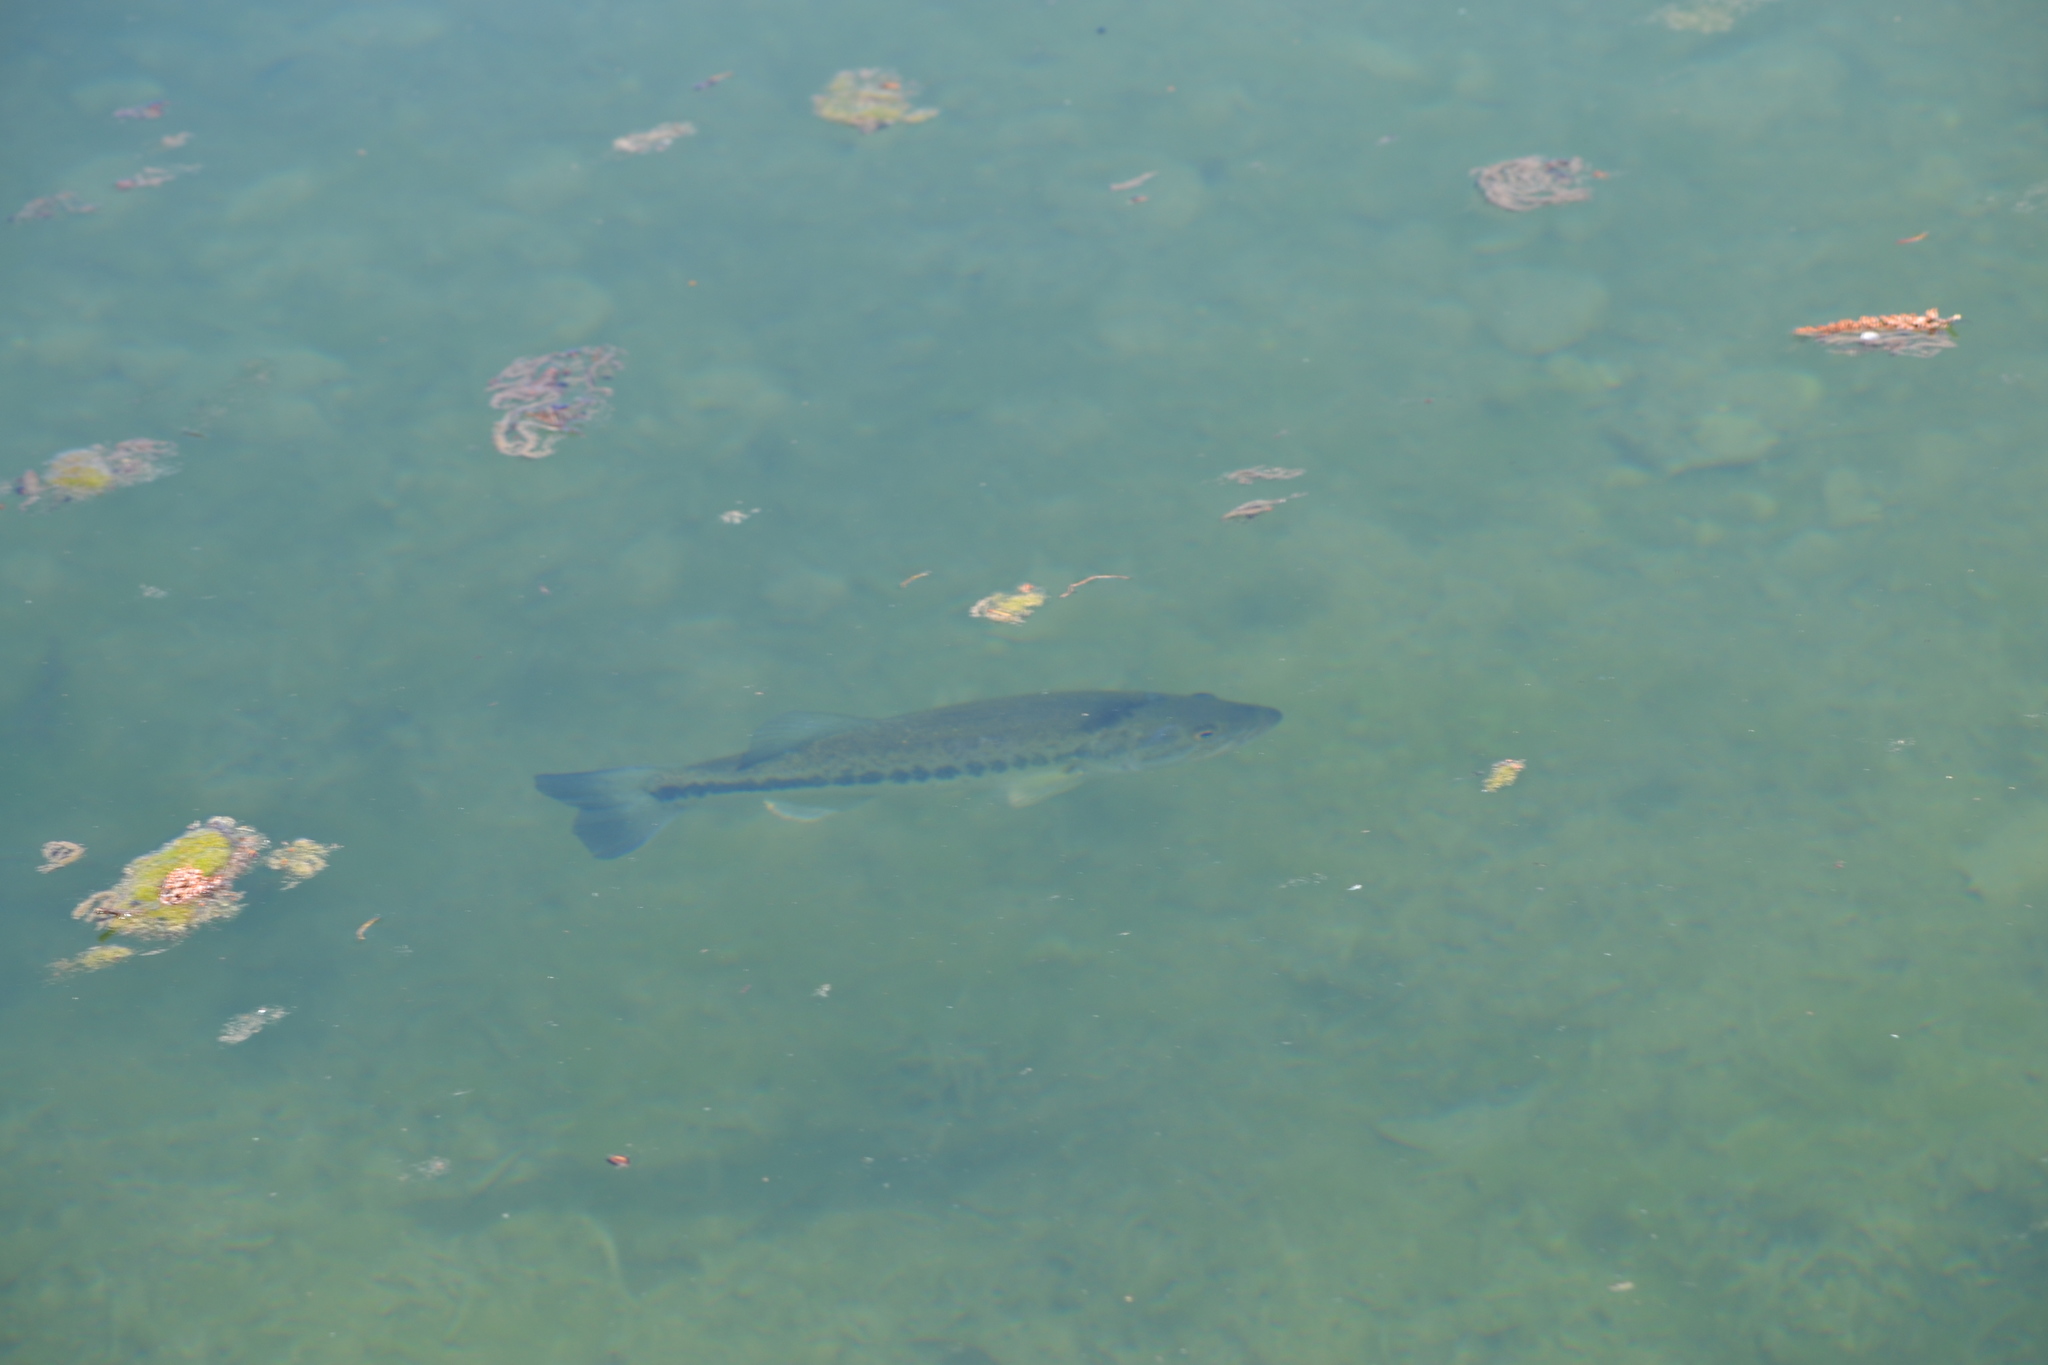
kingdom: Animalia
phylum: Chordata
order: Perciformes
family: Centrarchidae
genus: Micropterus
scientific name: Micropterus
